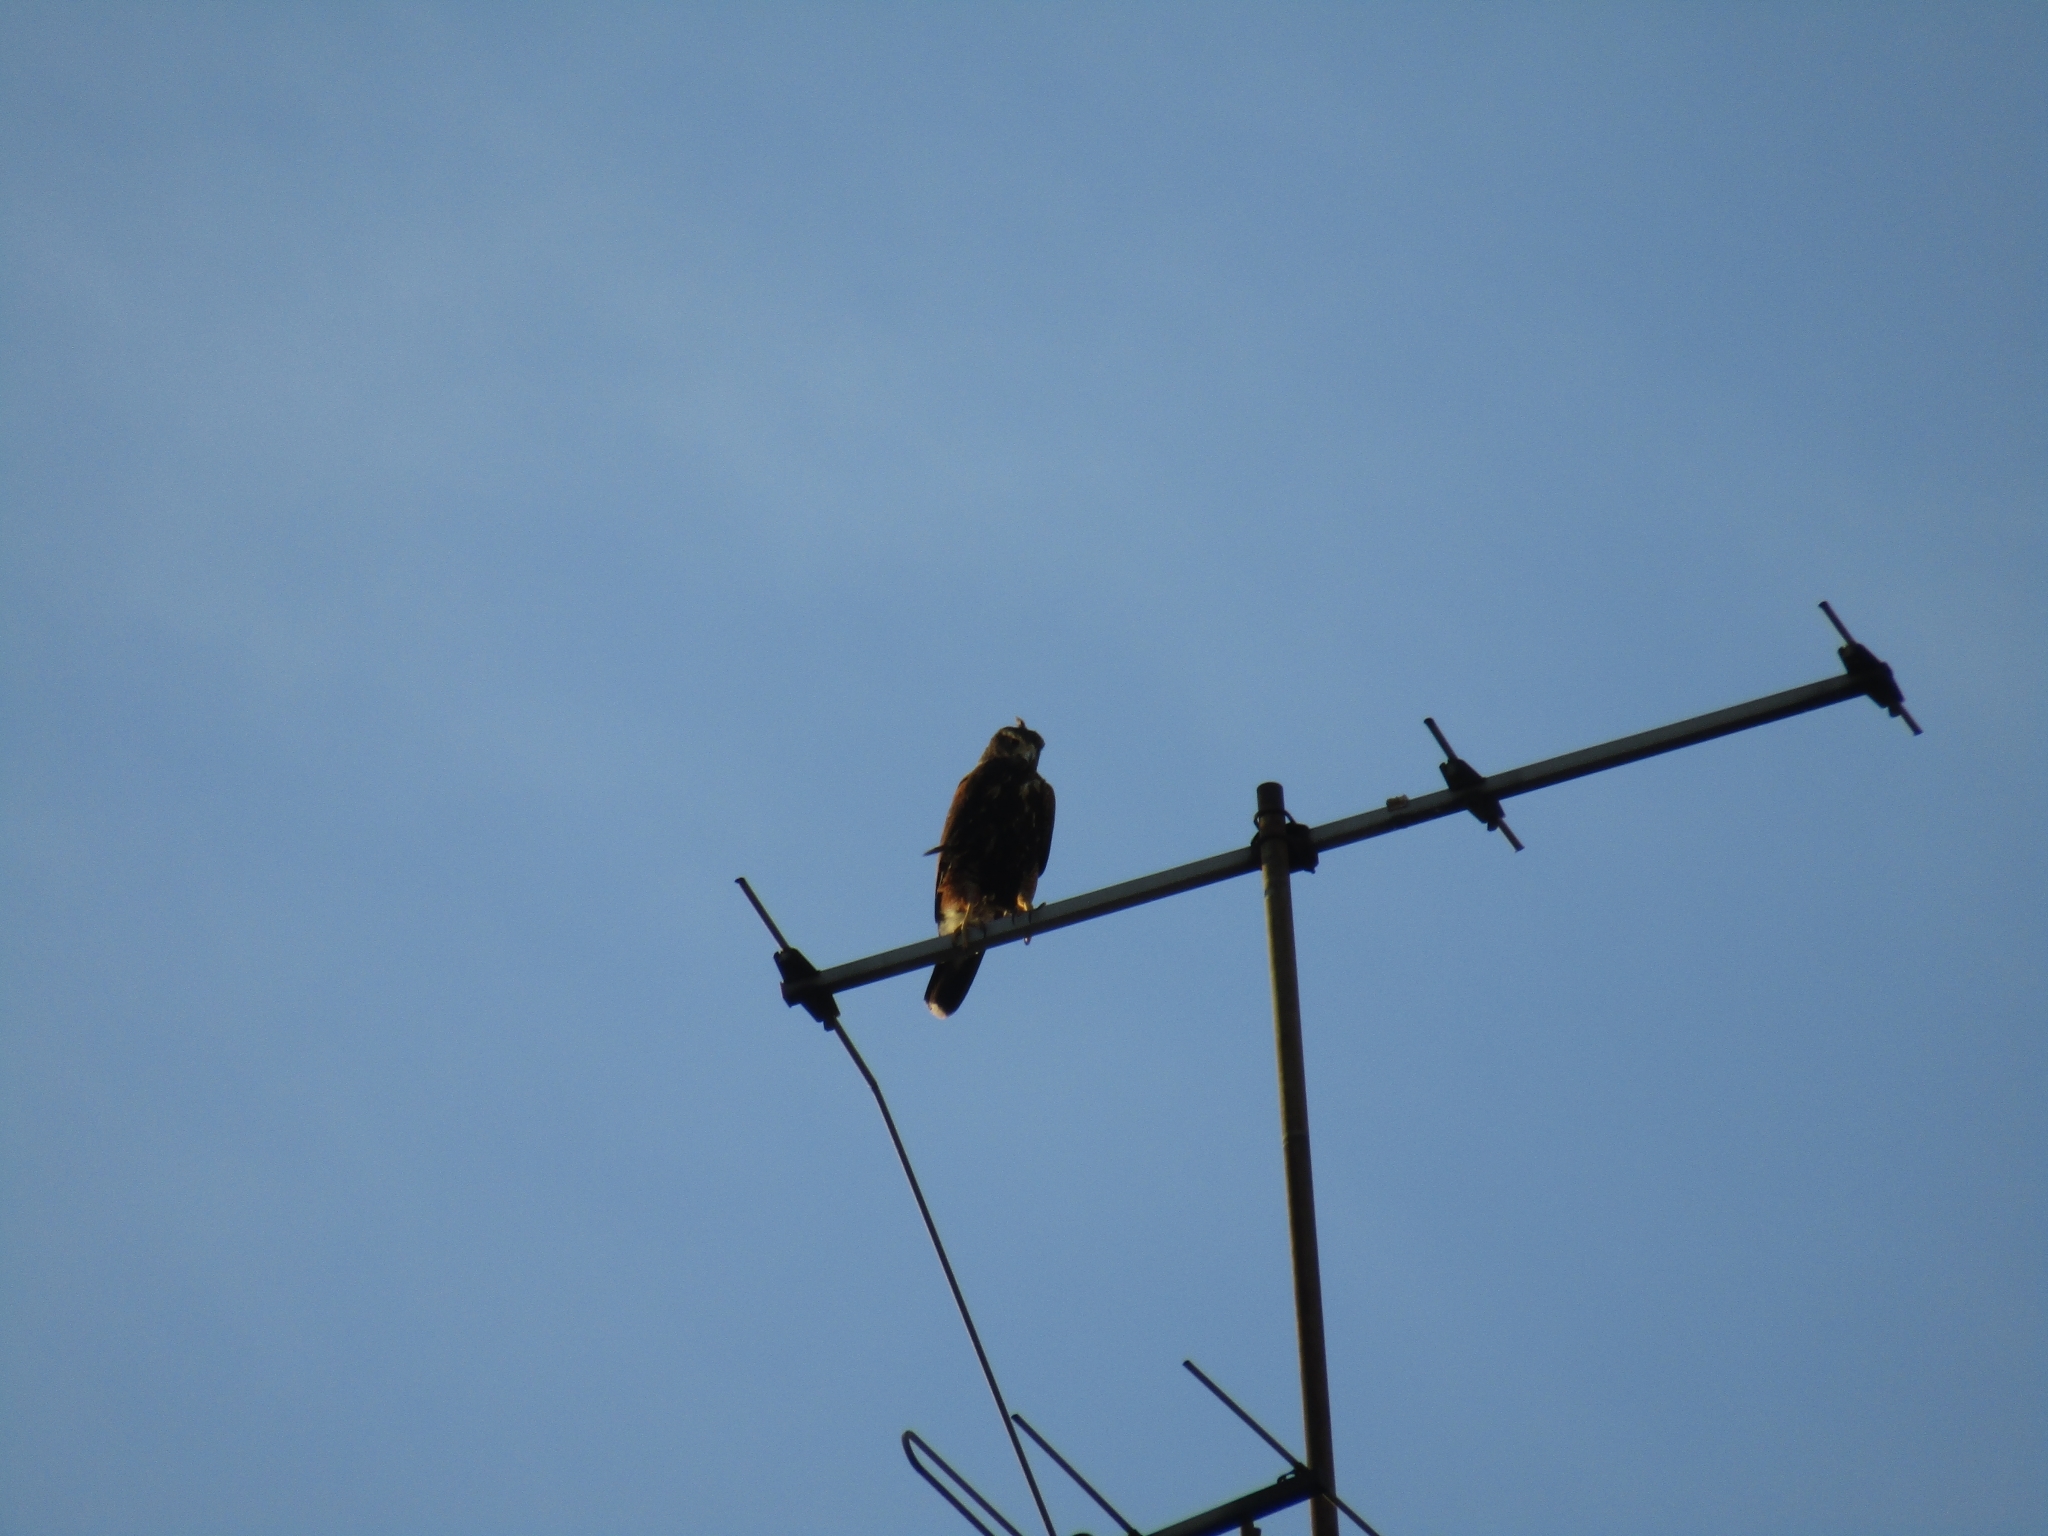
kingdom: Animalia
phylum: Chordata
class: Aves
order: Accipitriformes
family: Accipitridae
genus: Parabuteo
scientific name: Parabuteo unicinctus
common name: Harris's hawk
